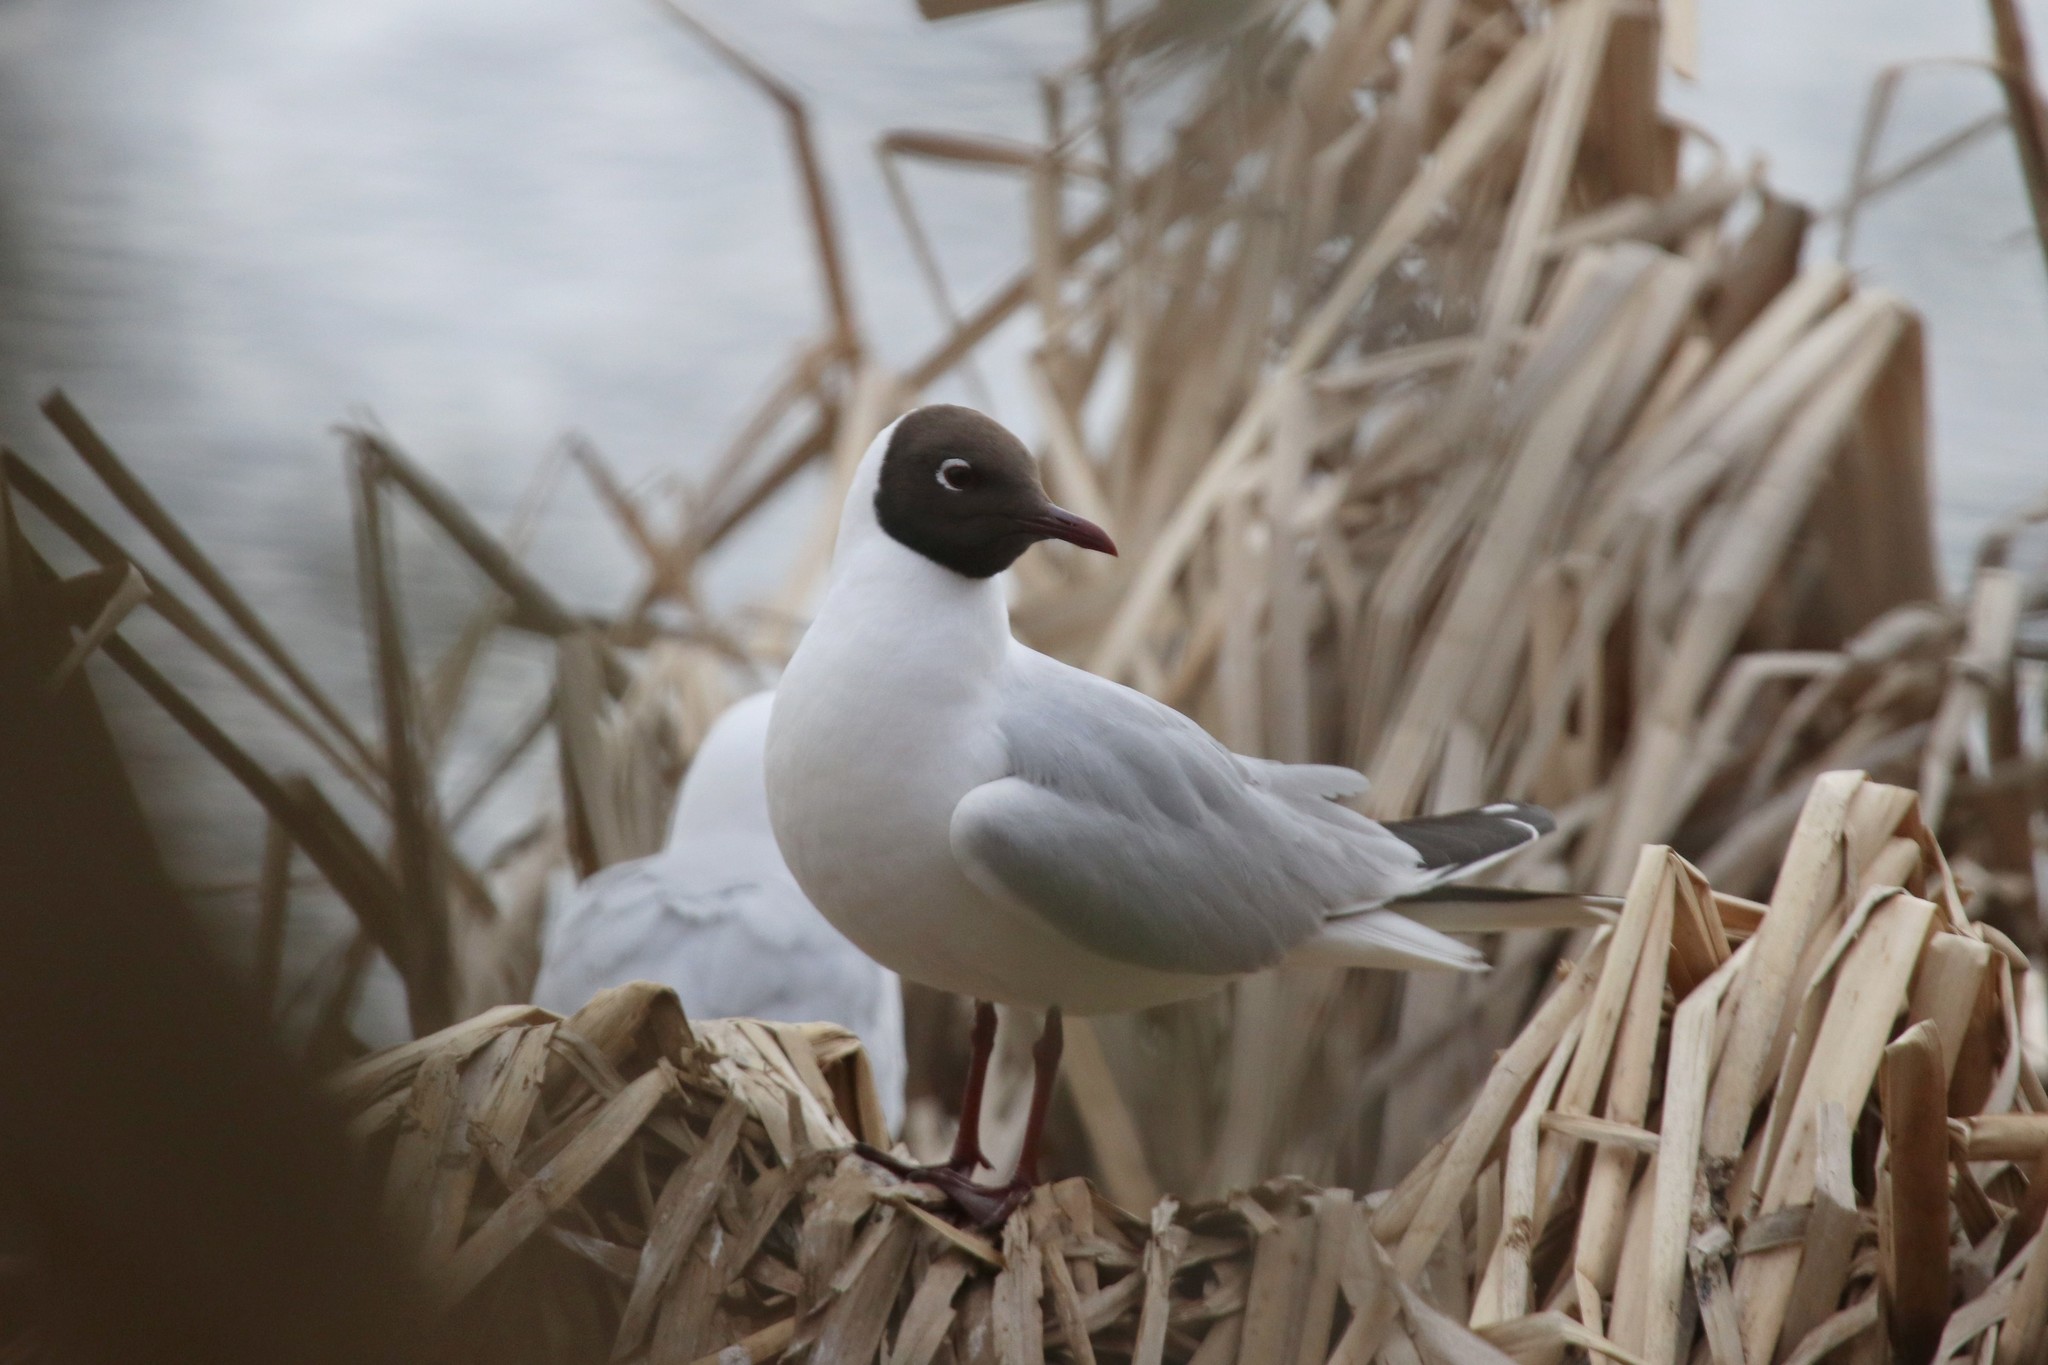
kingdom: Animalia
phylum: Chordata
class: Aves
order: Charadriiformes
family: Laridae
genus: Chroicocephalus
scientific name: Chroicocephalus ridibundus
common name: Black-headed gull
